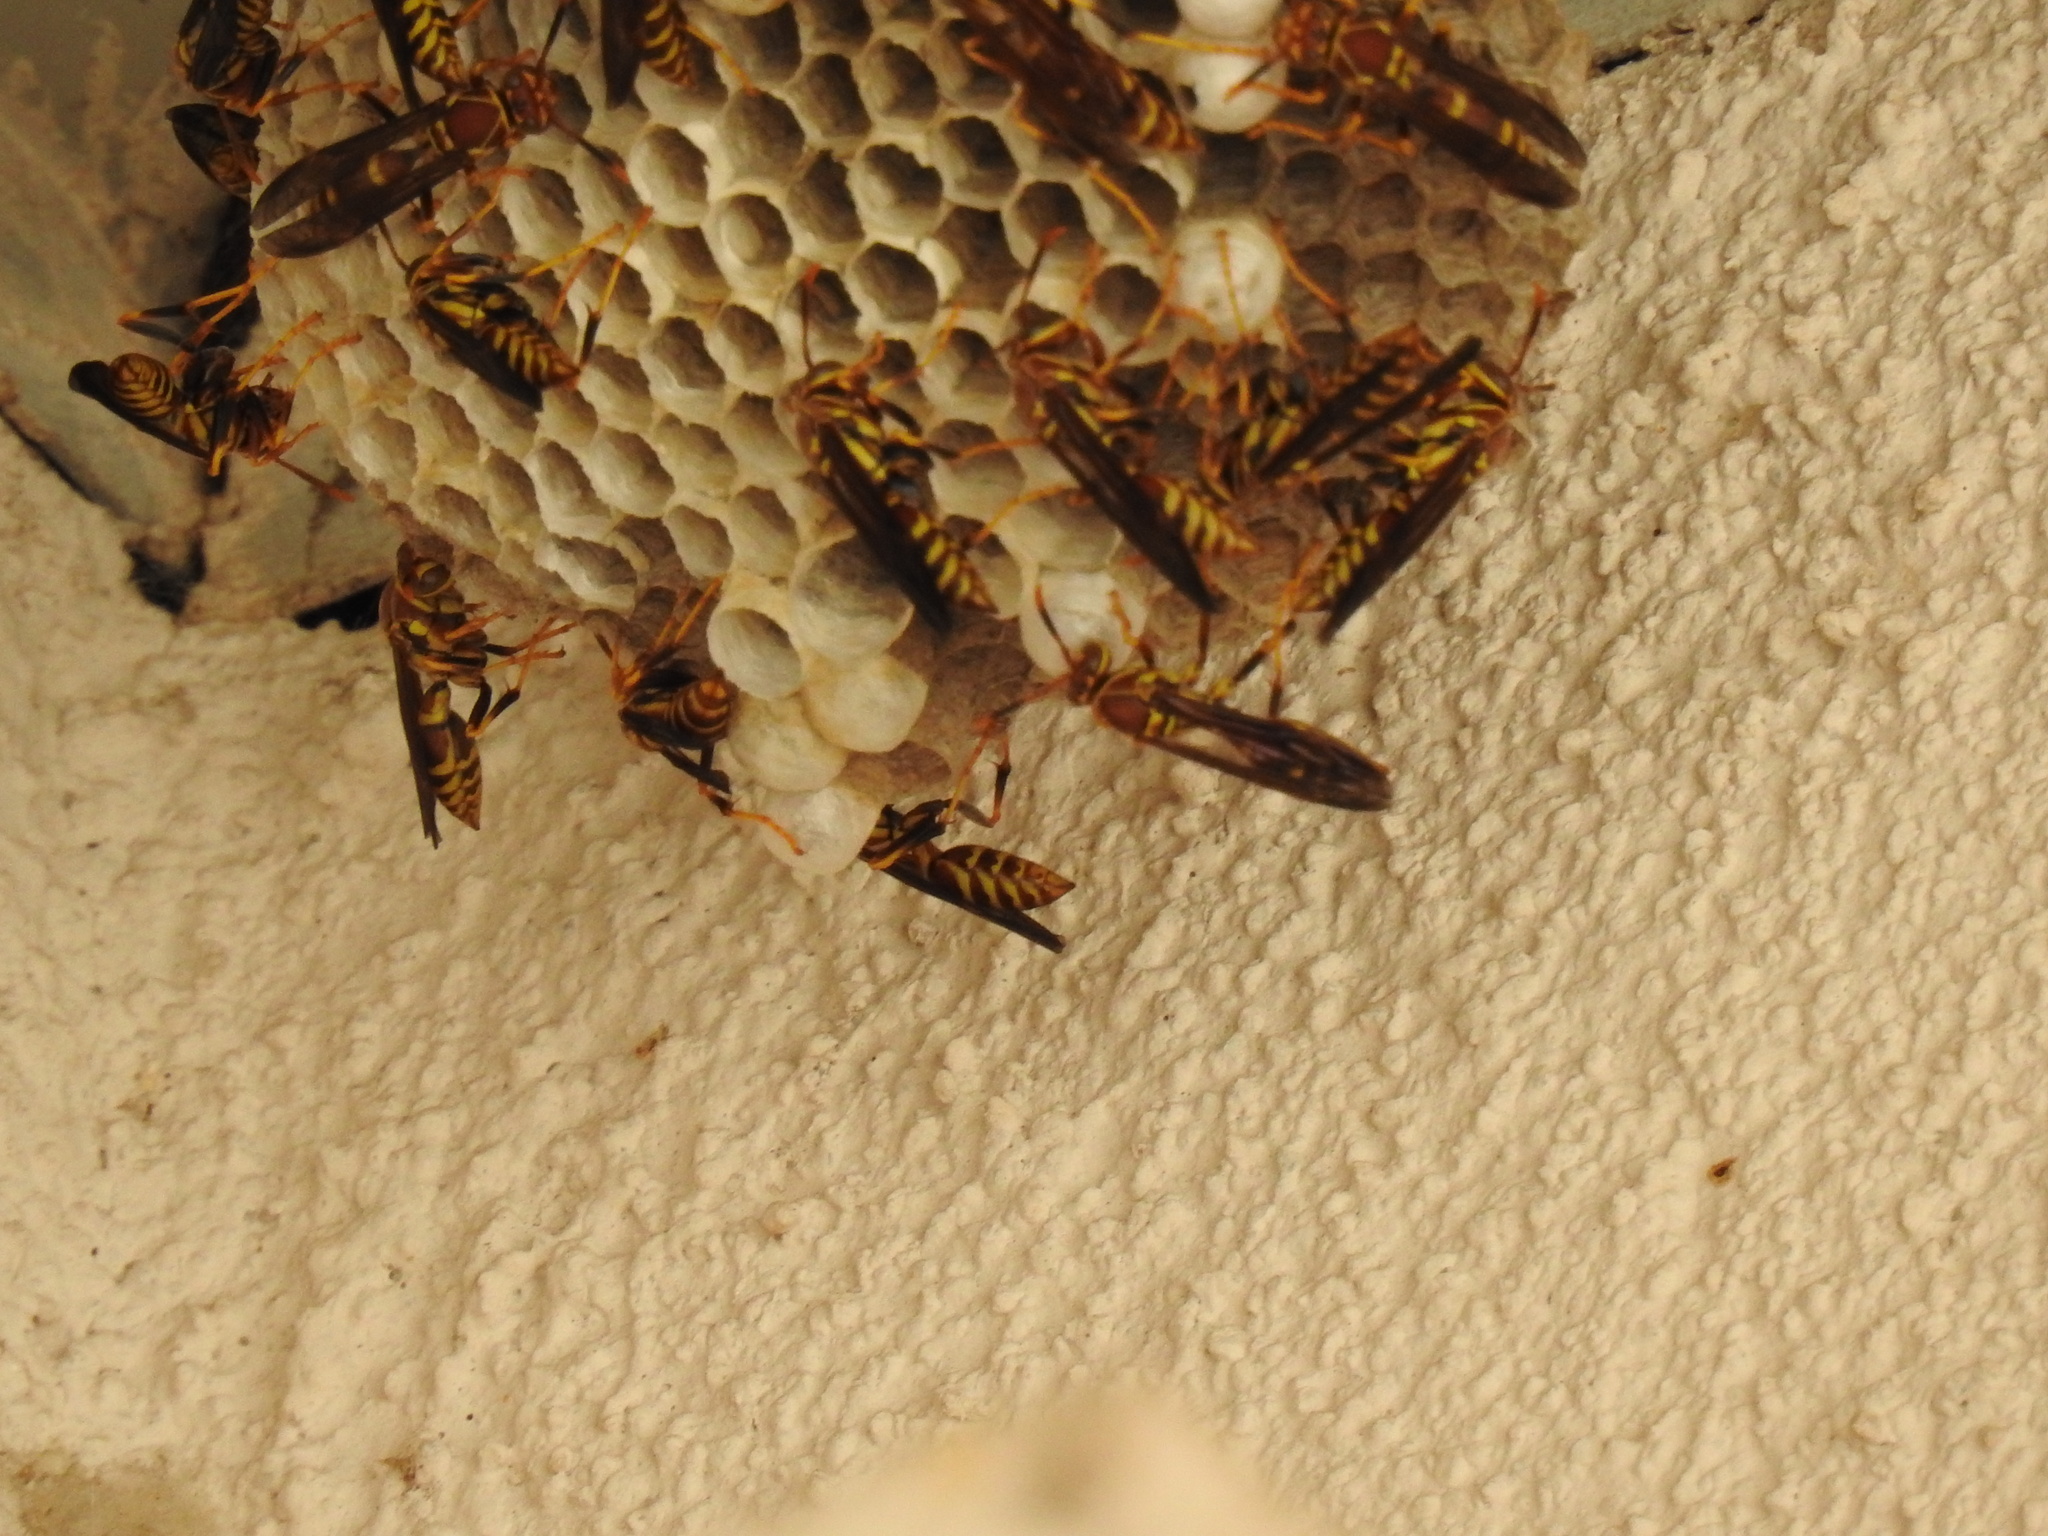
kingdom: Animalia
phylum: Arthropoda
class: Insecta
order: Hymenoptera
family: Eumenidae
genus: Polistes
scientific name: Polistes exclamans
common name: Paper wasp
